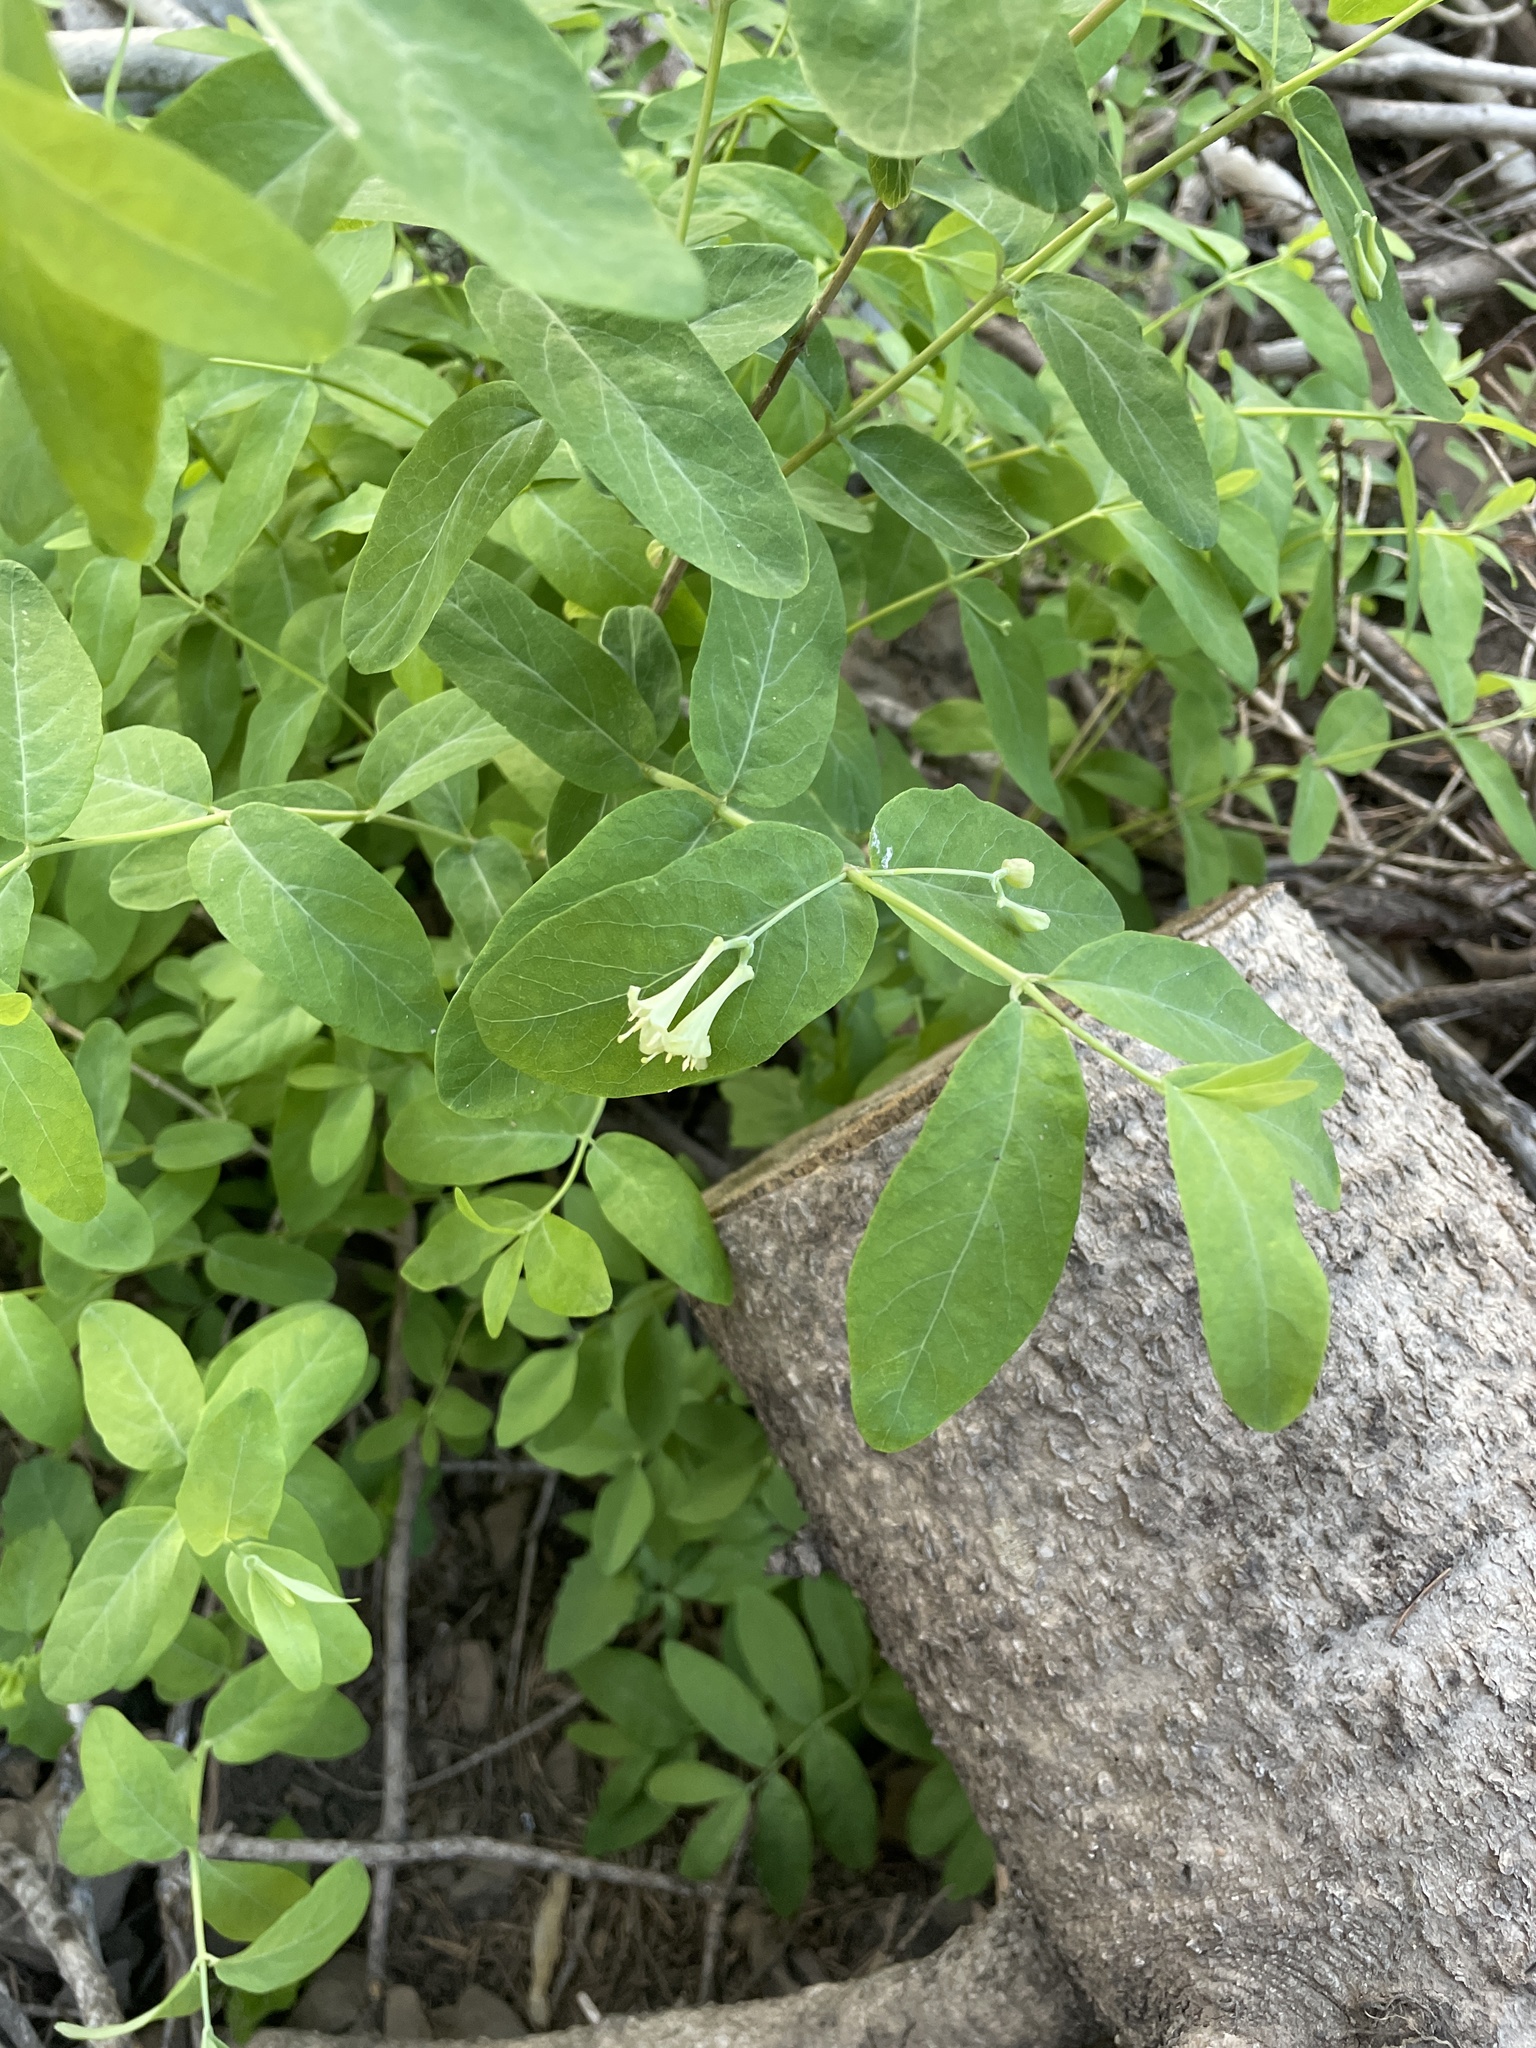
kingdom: Plantae
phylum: Tracheophyta
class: Magnoliopsida
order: Dipsacales
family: Caprifoliaceae
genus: Lonicera
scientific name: Lonicera utahensis
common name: Utah honeysuckle
